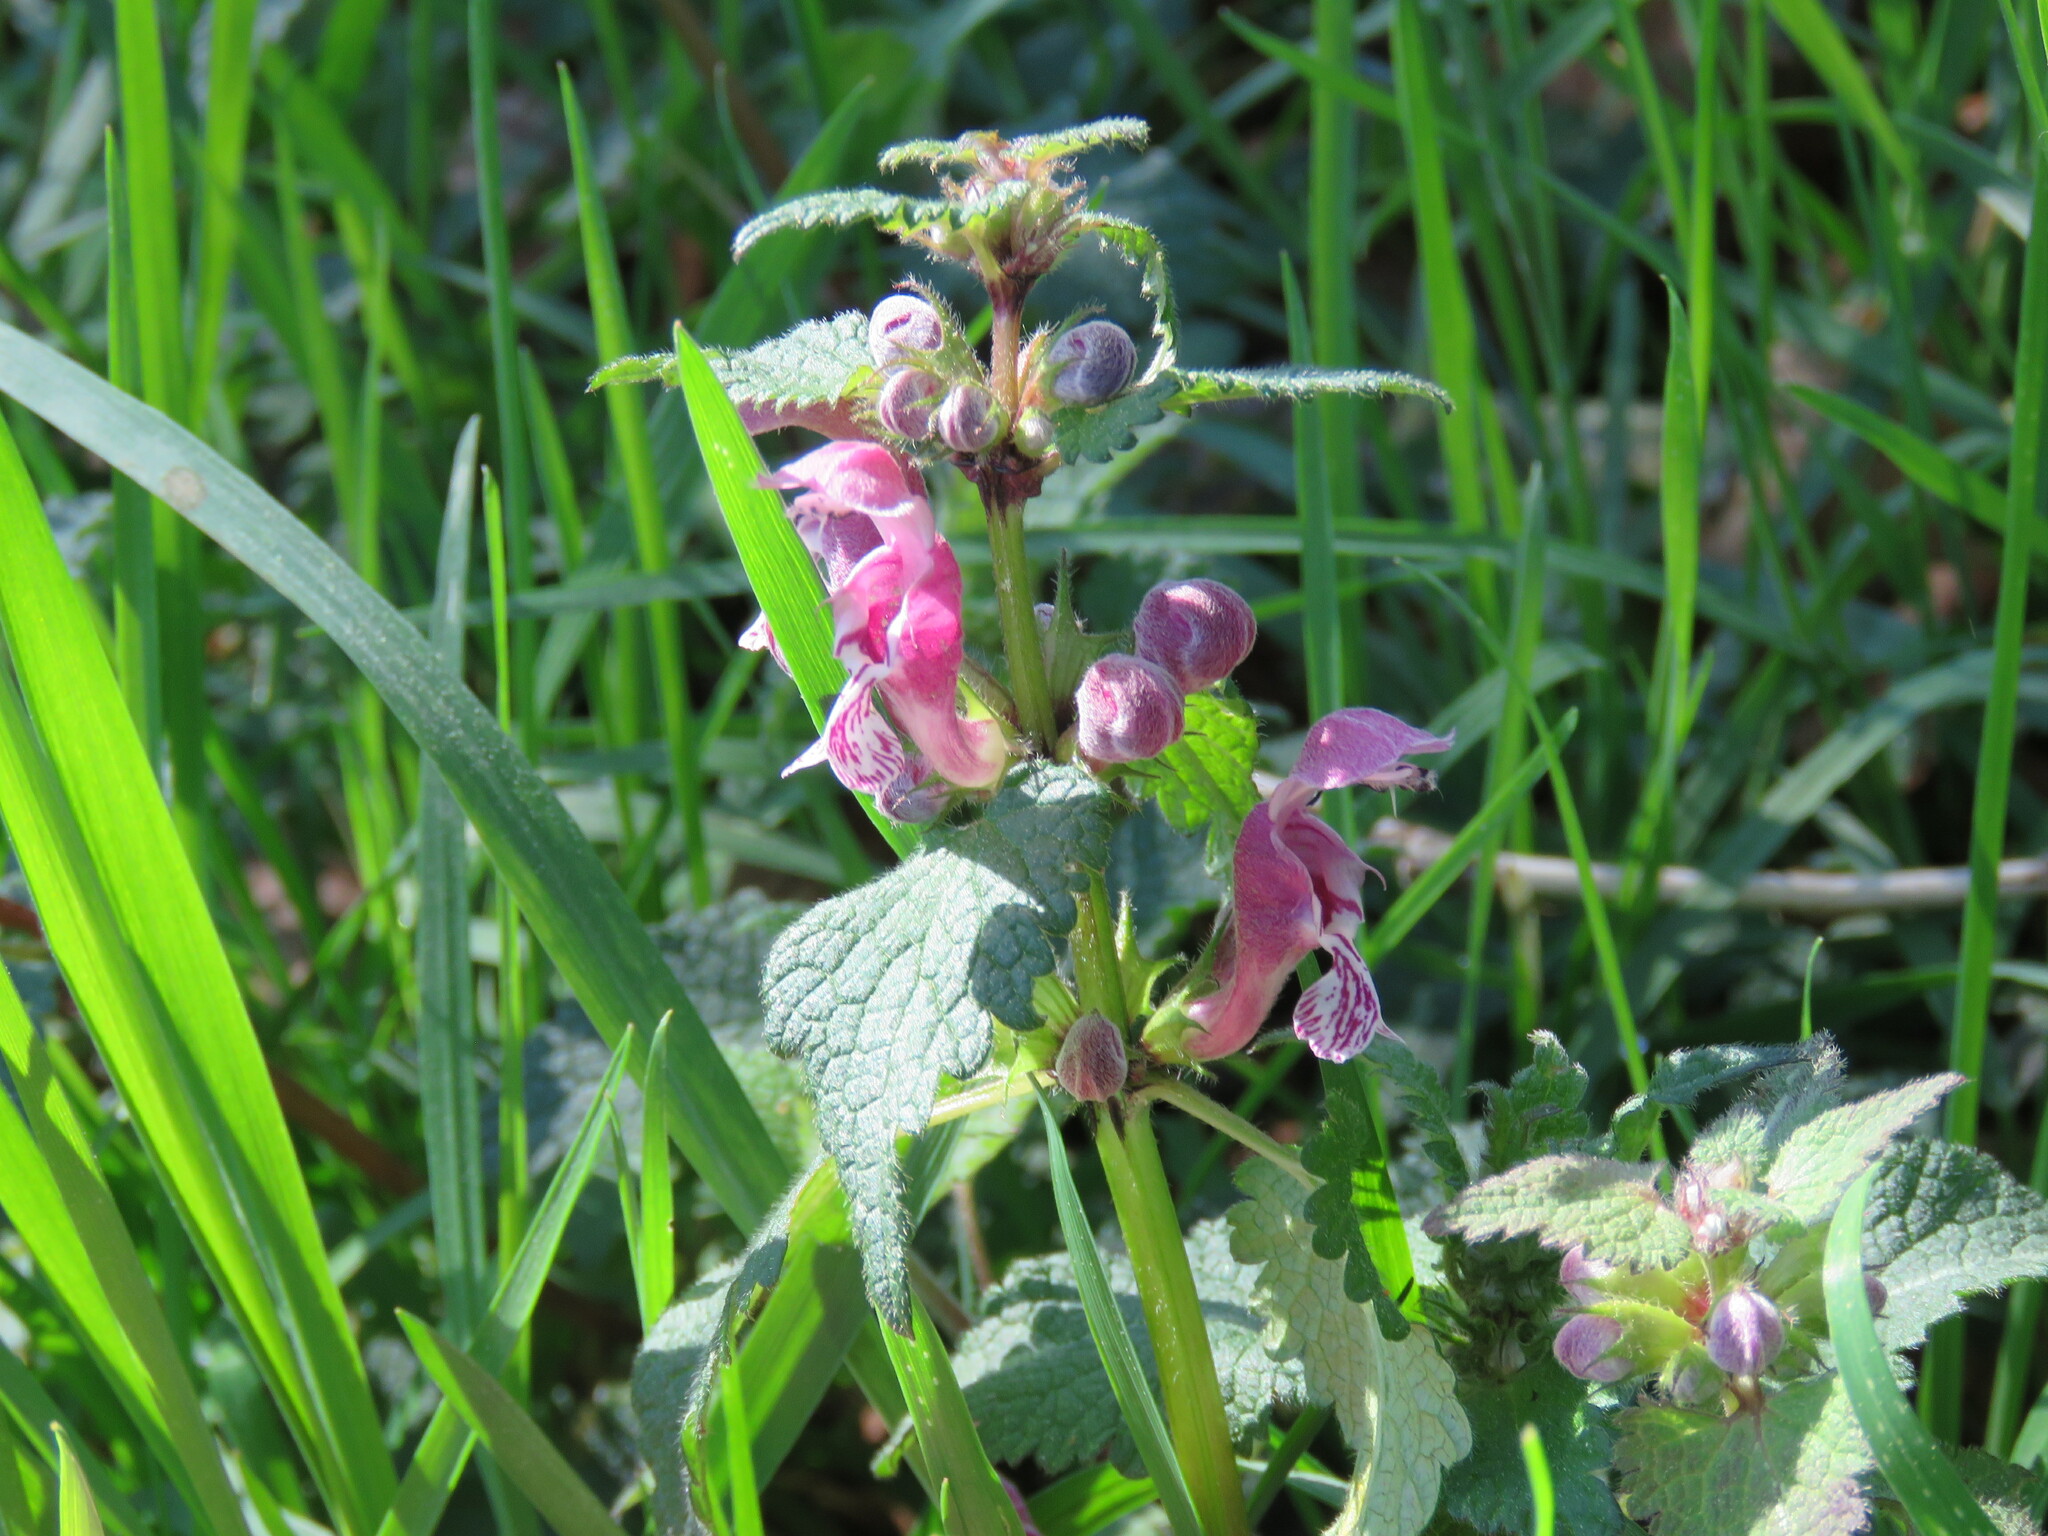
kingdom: Plantae
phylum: Tracheophyta
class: Magnoliopsida
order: Lamiales
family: Lamiaceae
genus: Lamium
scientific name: Lamium maculatum
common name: Spotted dead-nettle
